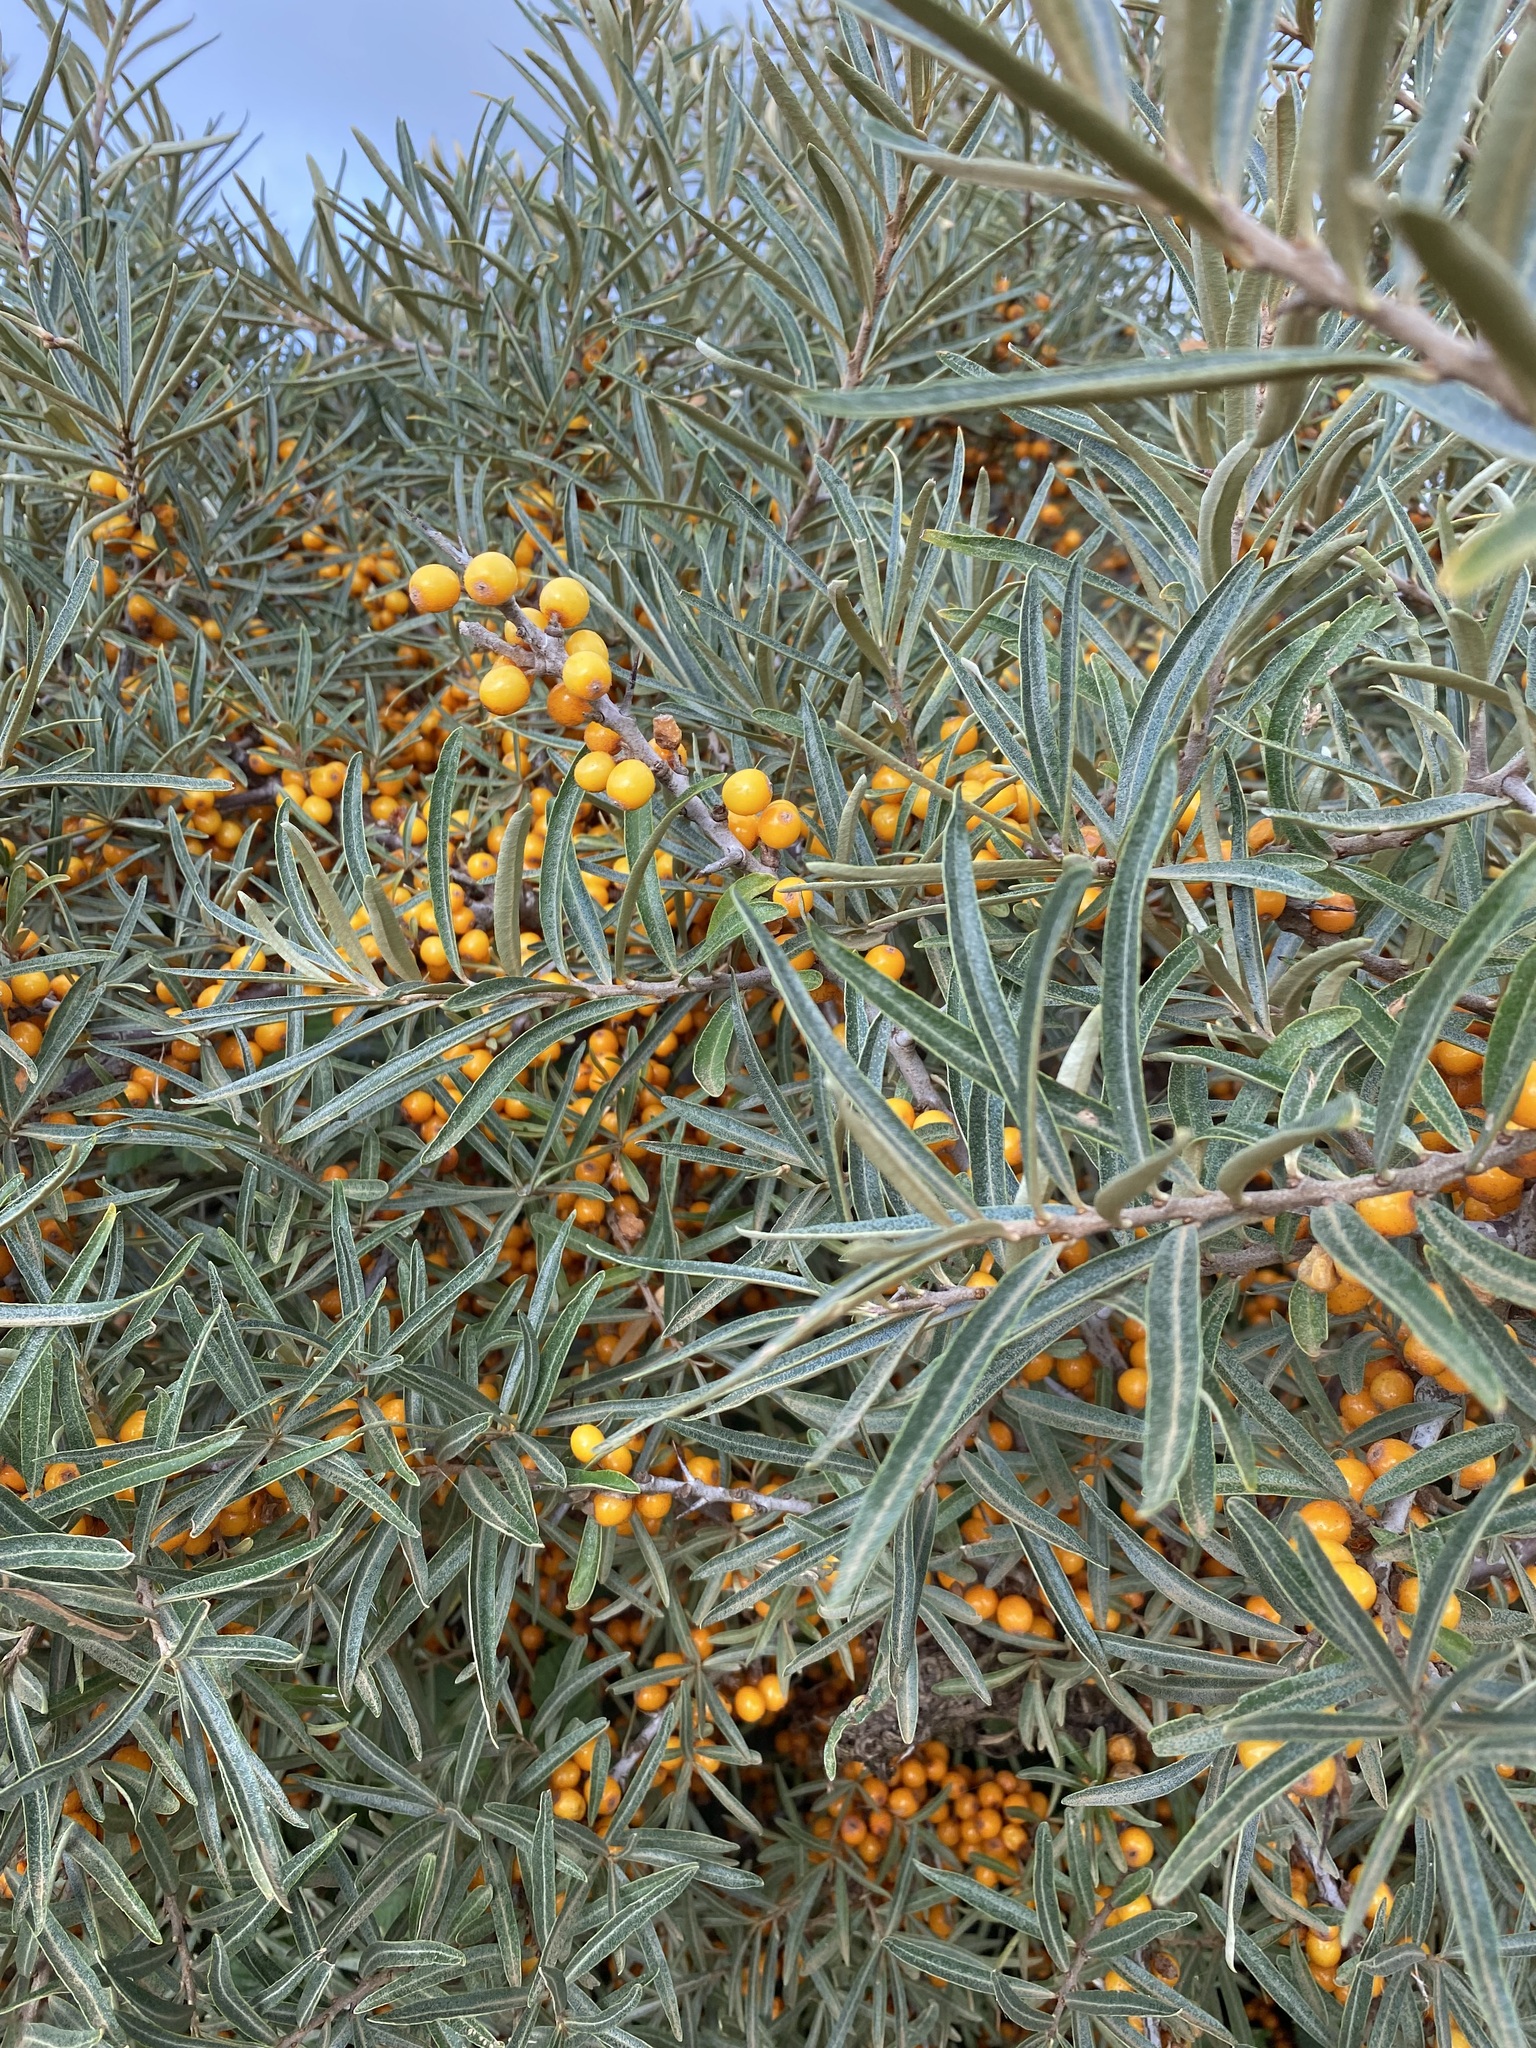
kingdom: Plantae
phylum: Tracheophyta
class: Magnoliopsida
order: Rosales
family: Elaeagnaceae
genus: Hippophae
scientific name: Hippophae rhamnoides
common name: Sea-buckthorn
